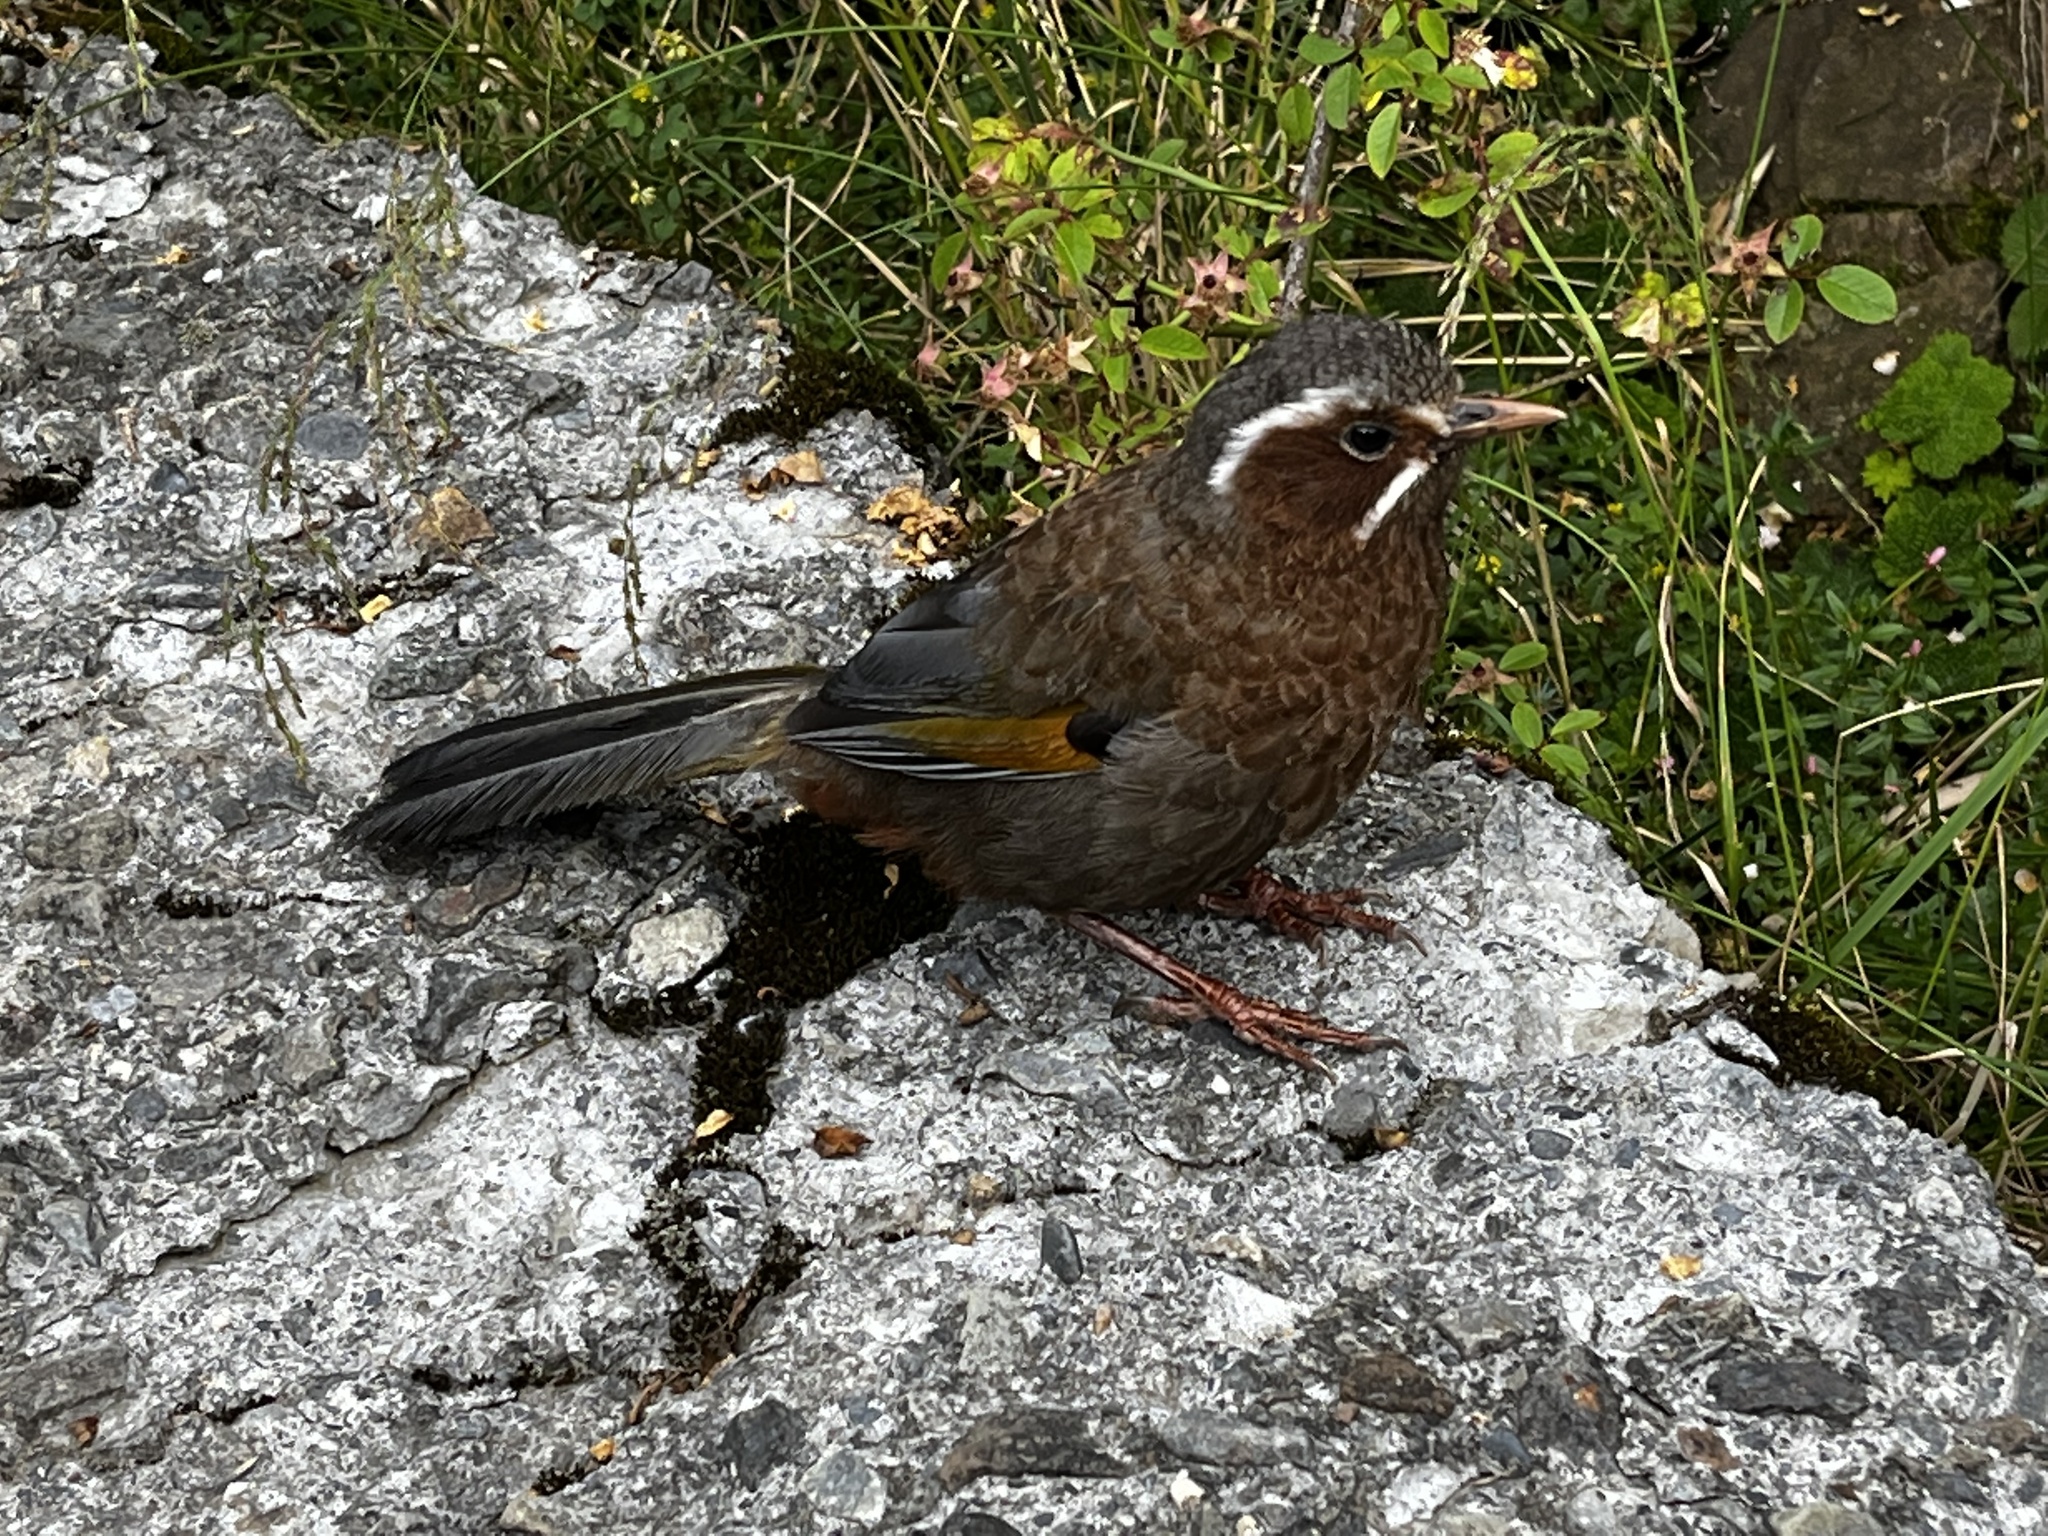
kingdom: Animalia
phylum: Chordata
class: Aves
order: Passeriformes
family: Leiothrichidae
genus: Trochalopteron
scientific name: Trochalopteron morrisonianum
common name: White-whiskered laughingthrush
